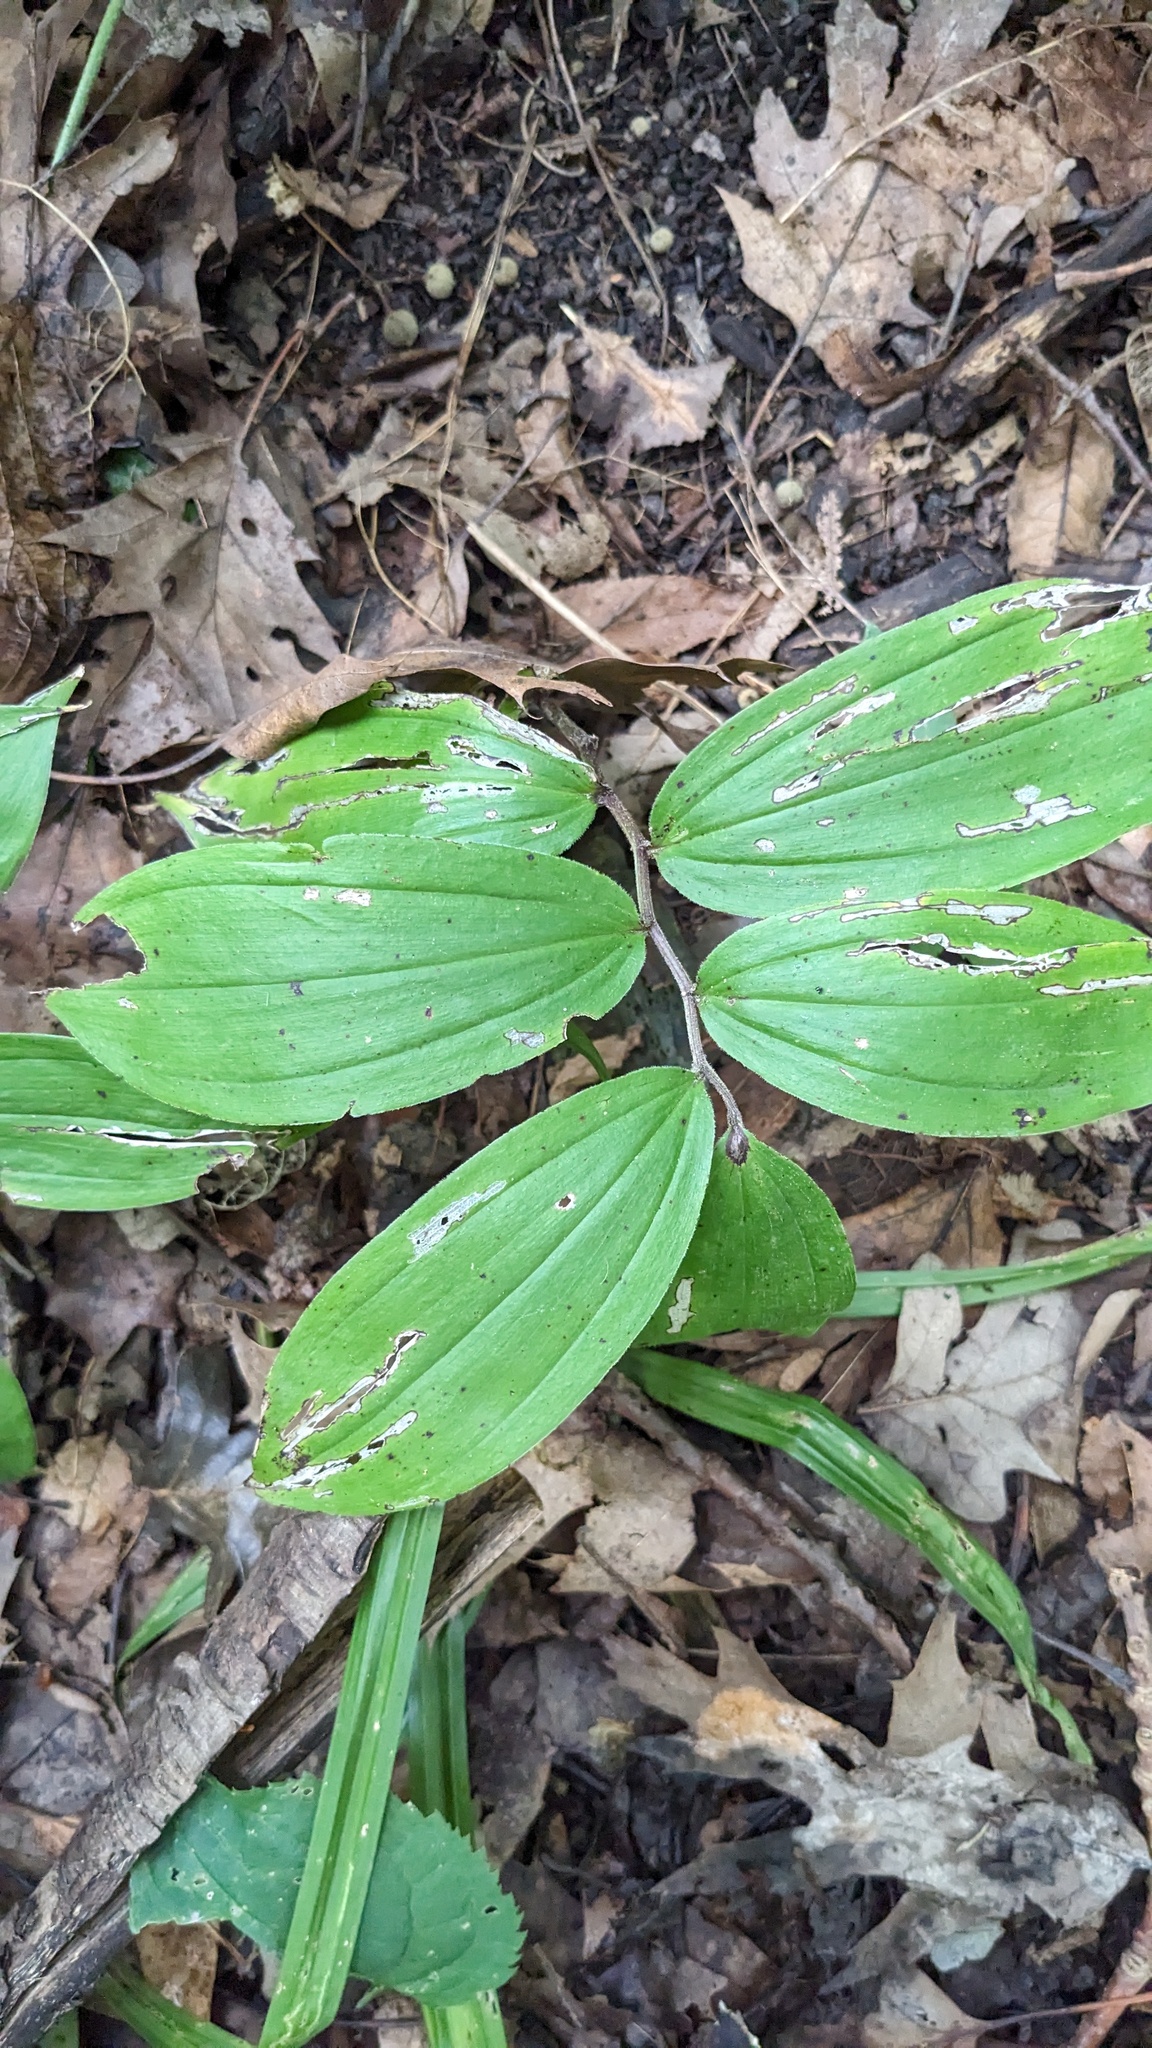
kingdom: Plantae
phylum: Tracheophyta
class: Liliopsida
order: Asparagales
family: Asparagaceae
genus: Maianthemum
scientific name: Maianthemum racemosum
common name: False spikenard
